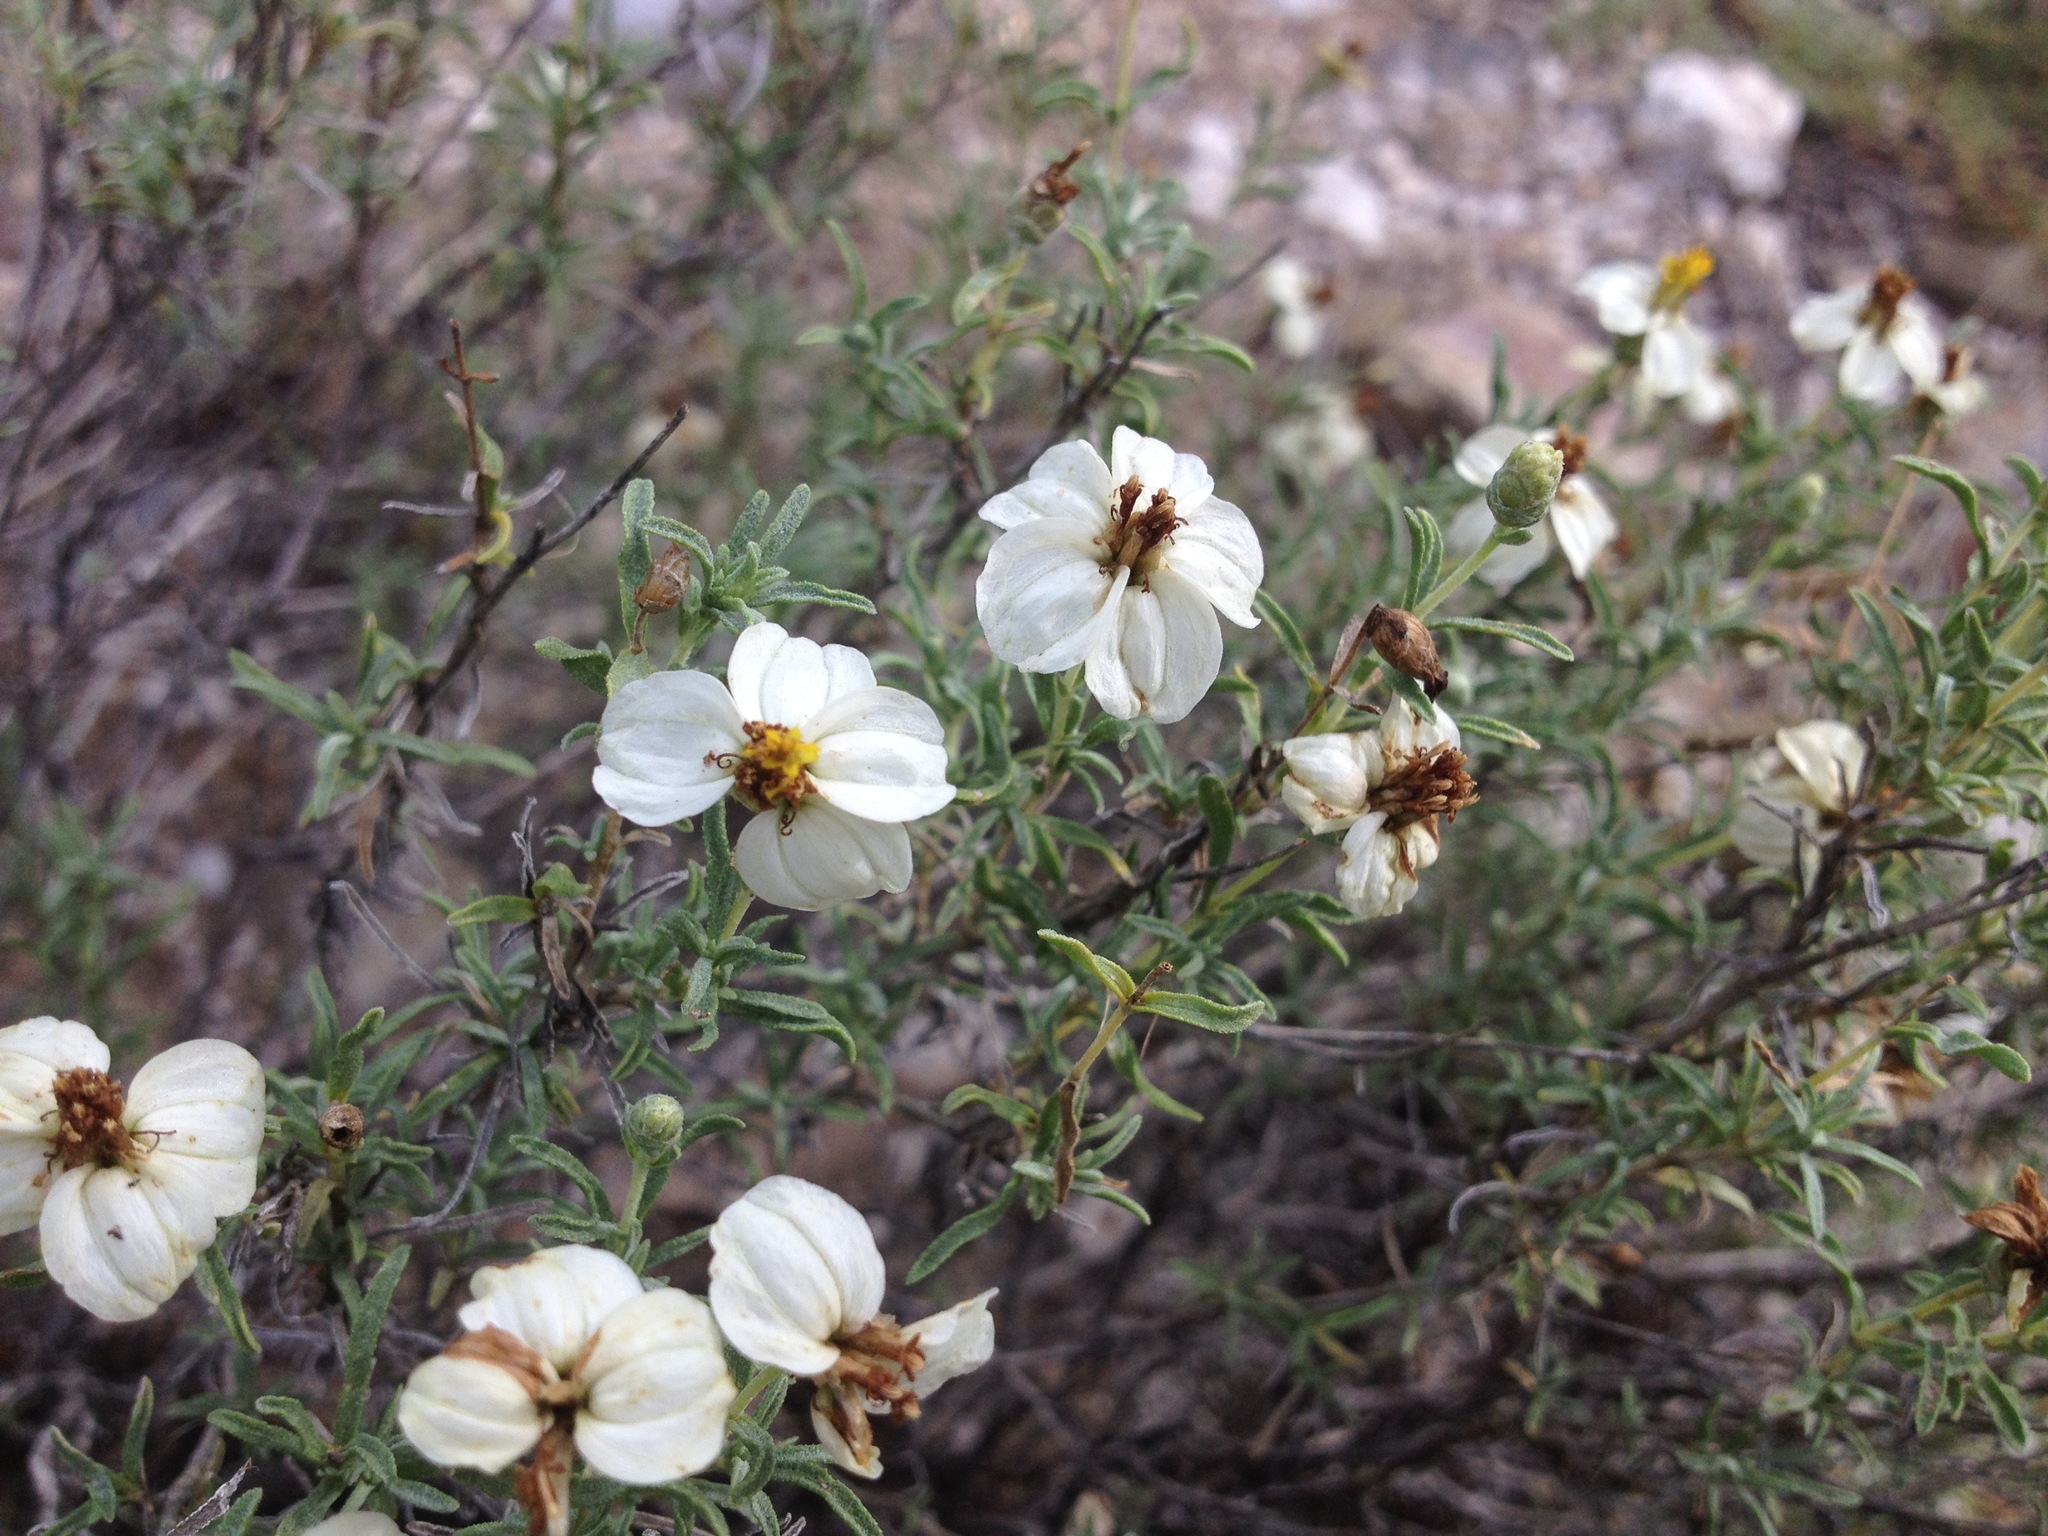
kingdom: Plantae
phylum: Tracheophyta
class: Magnoliopsida
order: Asterales
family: Asteraceae
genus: Zinnia
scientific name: Zinnia acerosa
